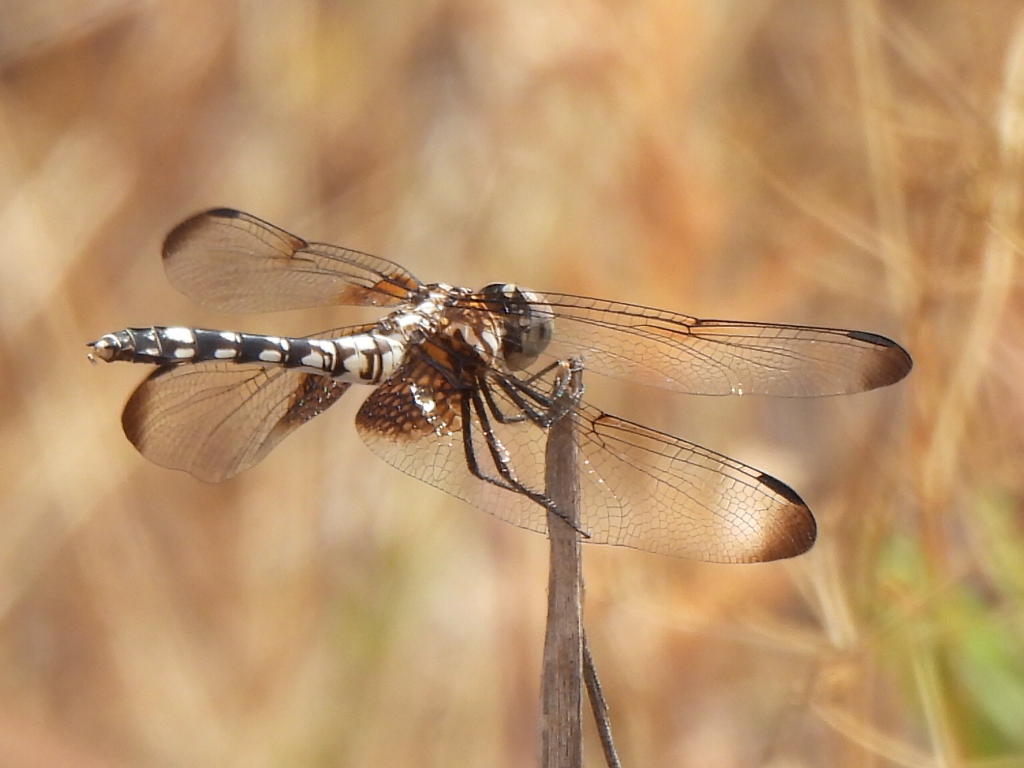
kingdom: Animalia
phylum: Arthropoda
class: Insecta
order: Odonata
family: Libellulidae
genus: Dythemis
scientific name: Dythemis fugax
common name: Checkered setwing
